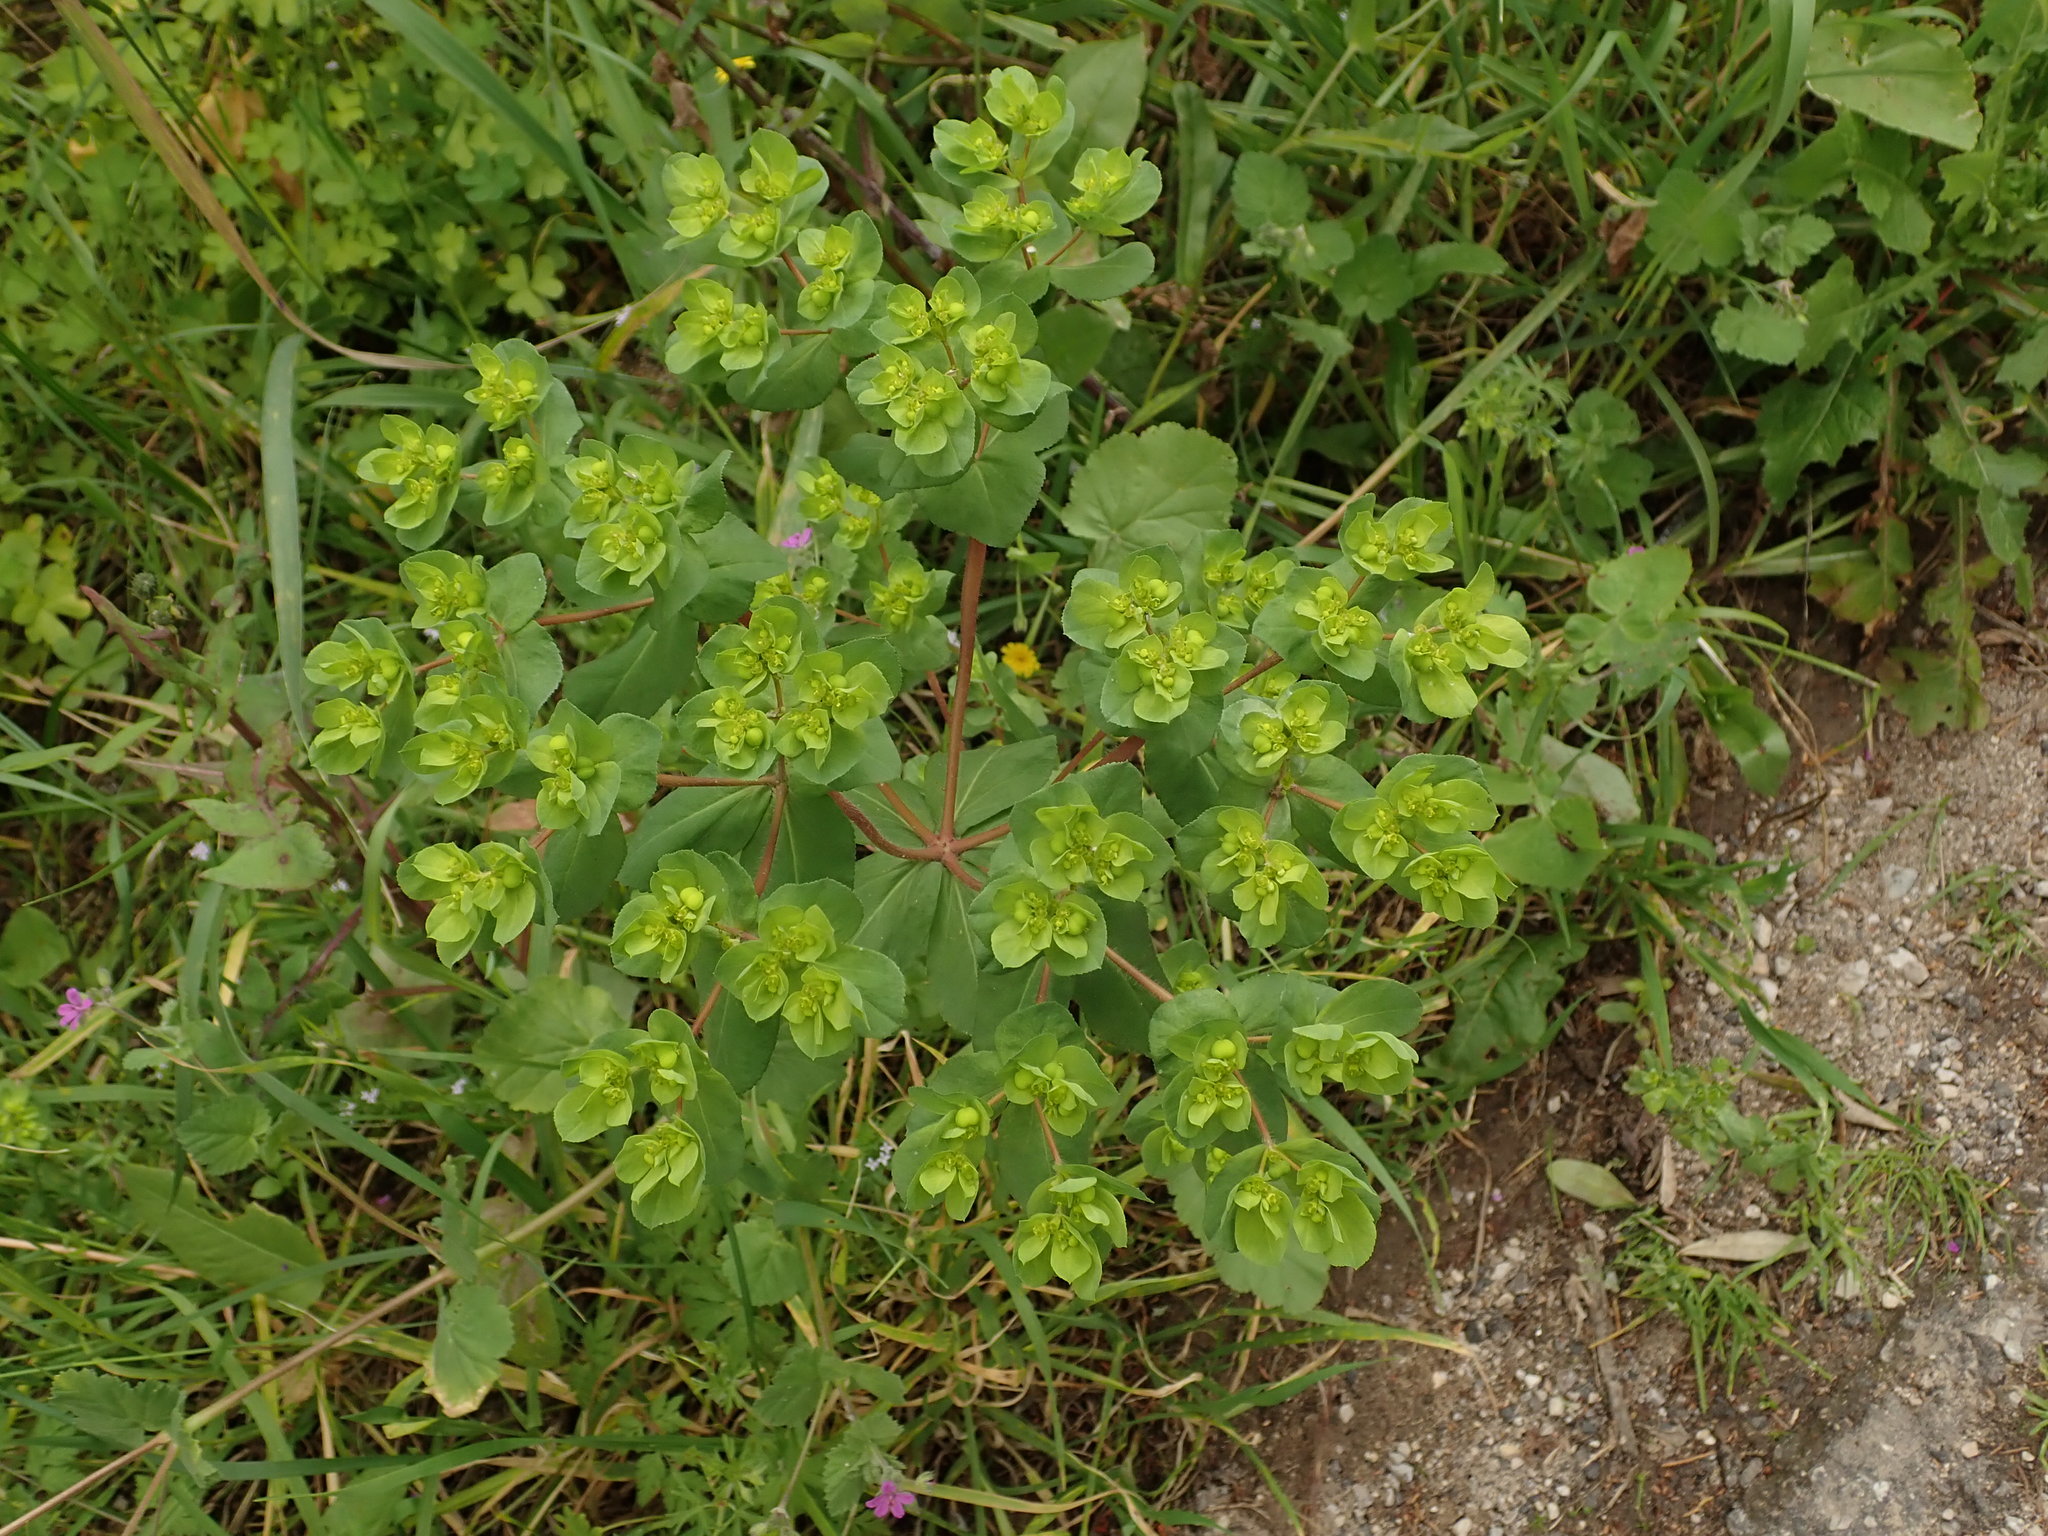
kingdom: Plantae
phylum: Tracheophyta
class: Magnoliopsida
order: Malpighiales
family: Euphorbiaceae
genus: Euphorbia
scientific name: Euphorbia helioscopia
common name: Sun spurge
